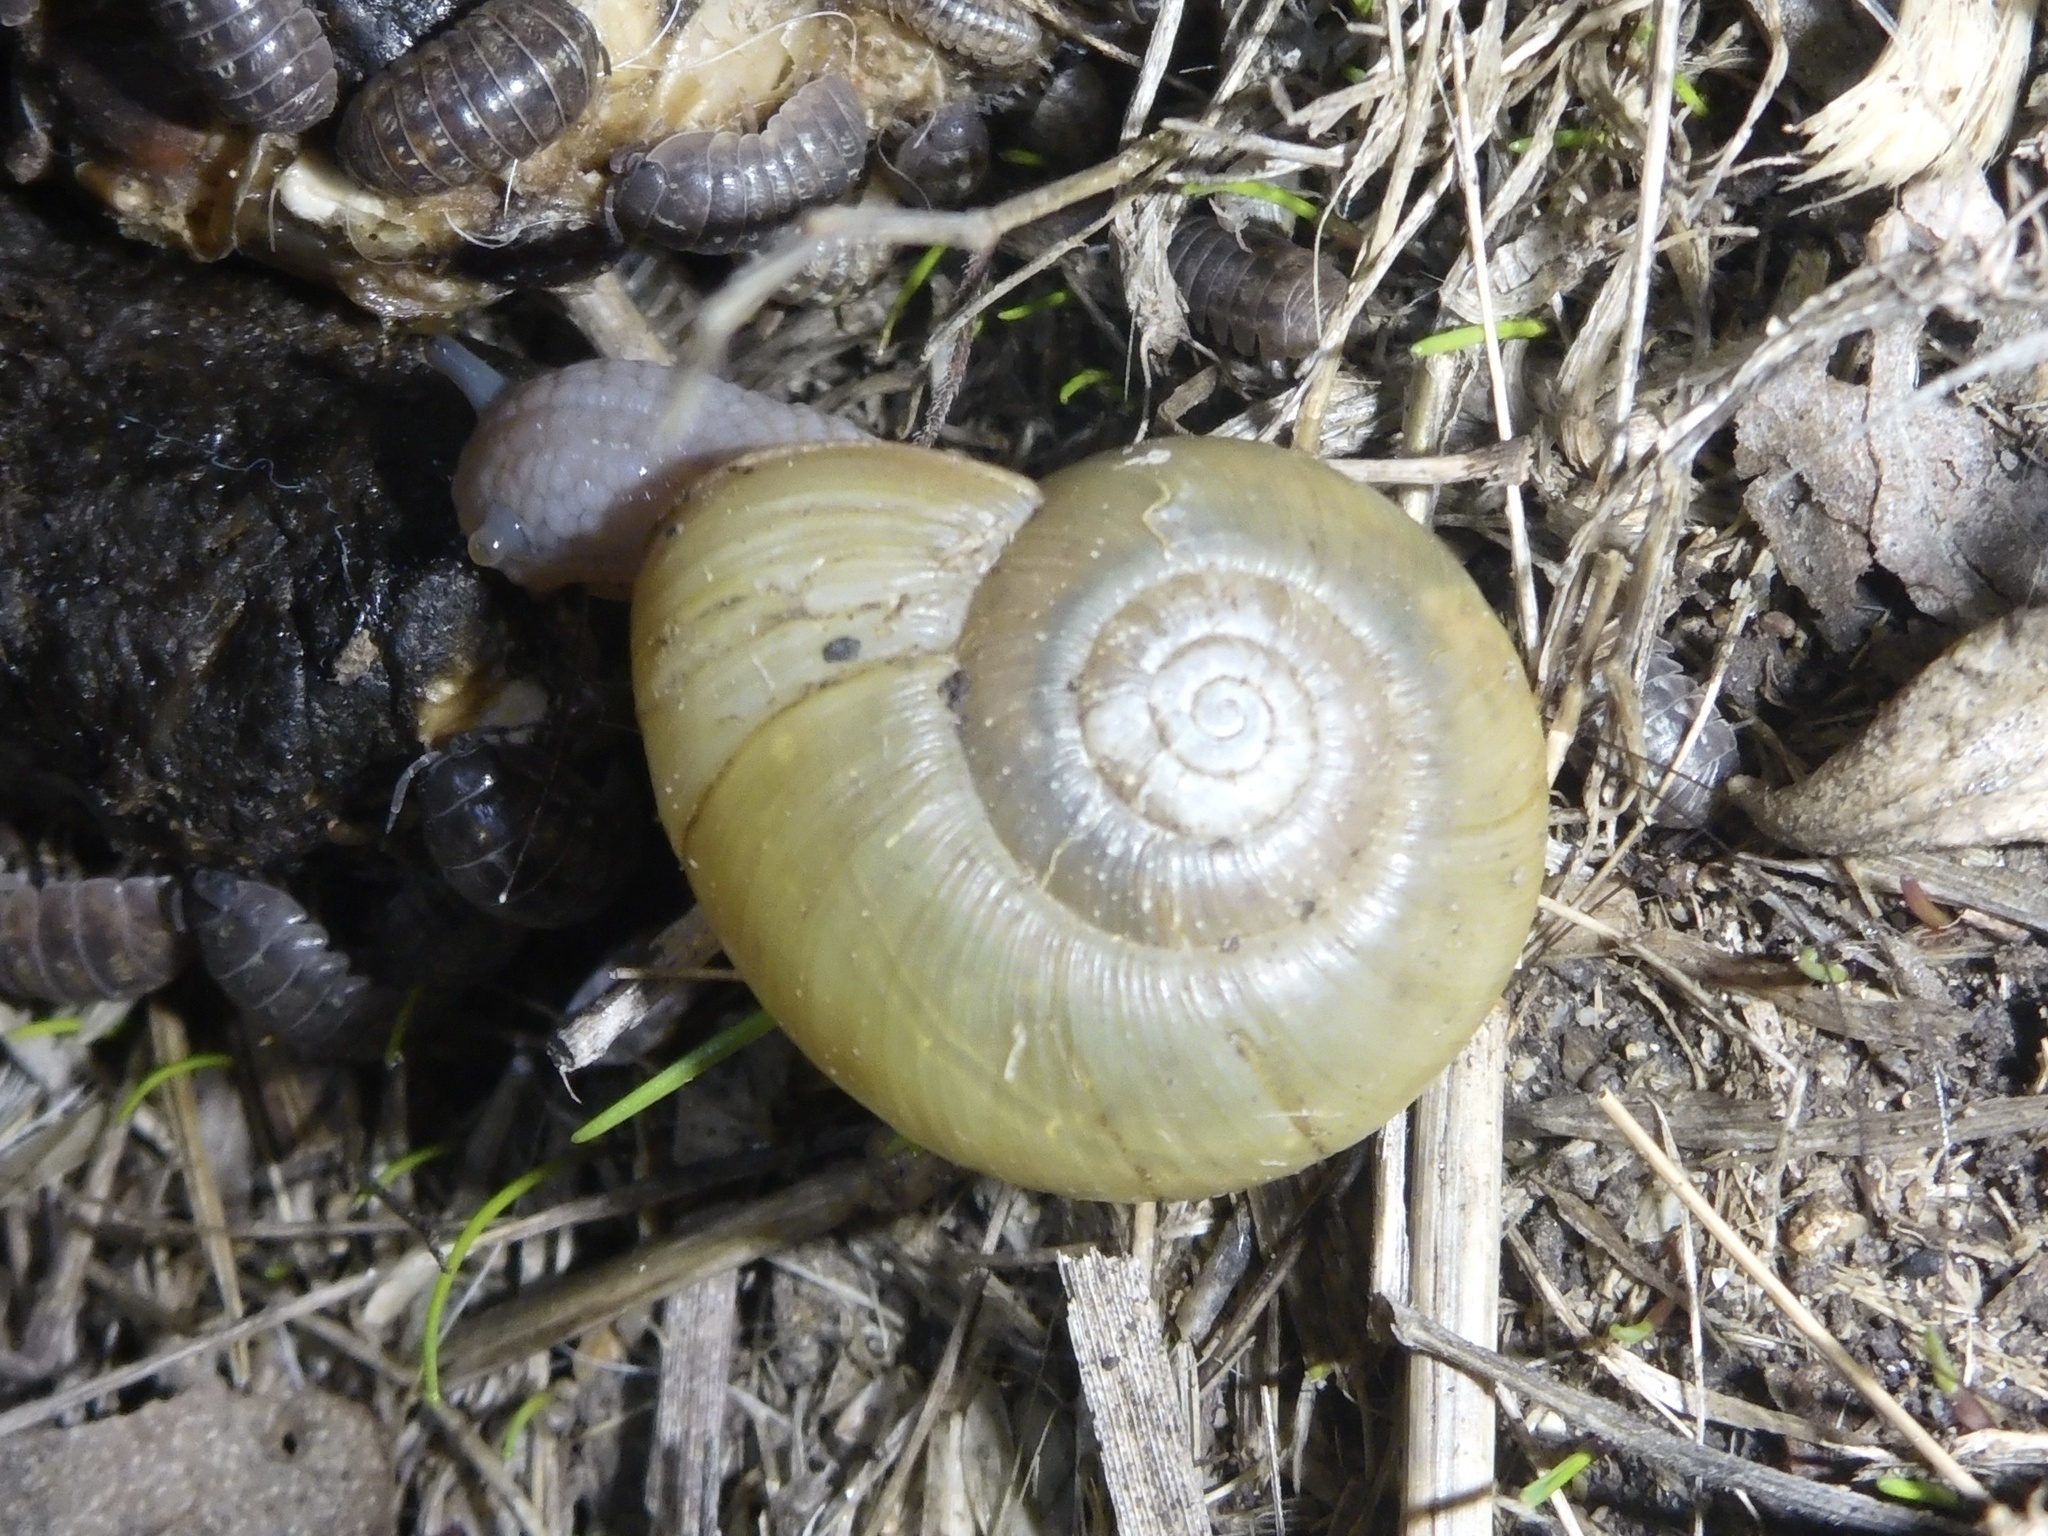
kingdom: Animalia
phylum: Mollusca
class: Gastropoda
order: Stylommatophora
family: Haplotrematidae
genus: Haplotrema
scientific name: Haplotrema minimum
